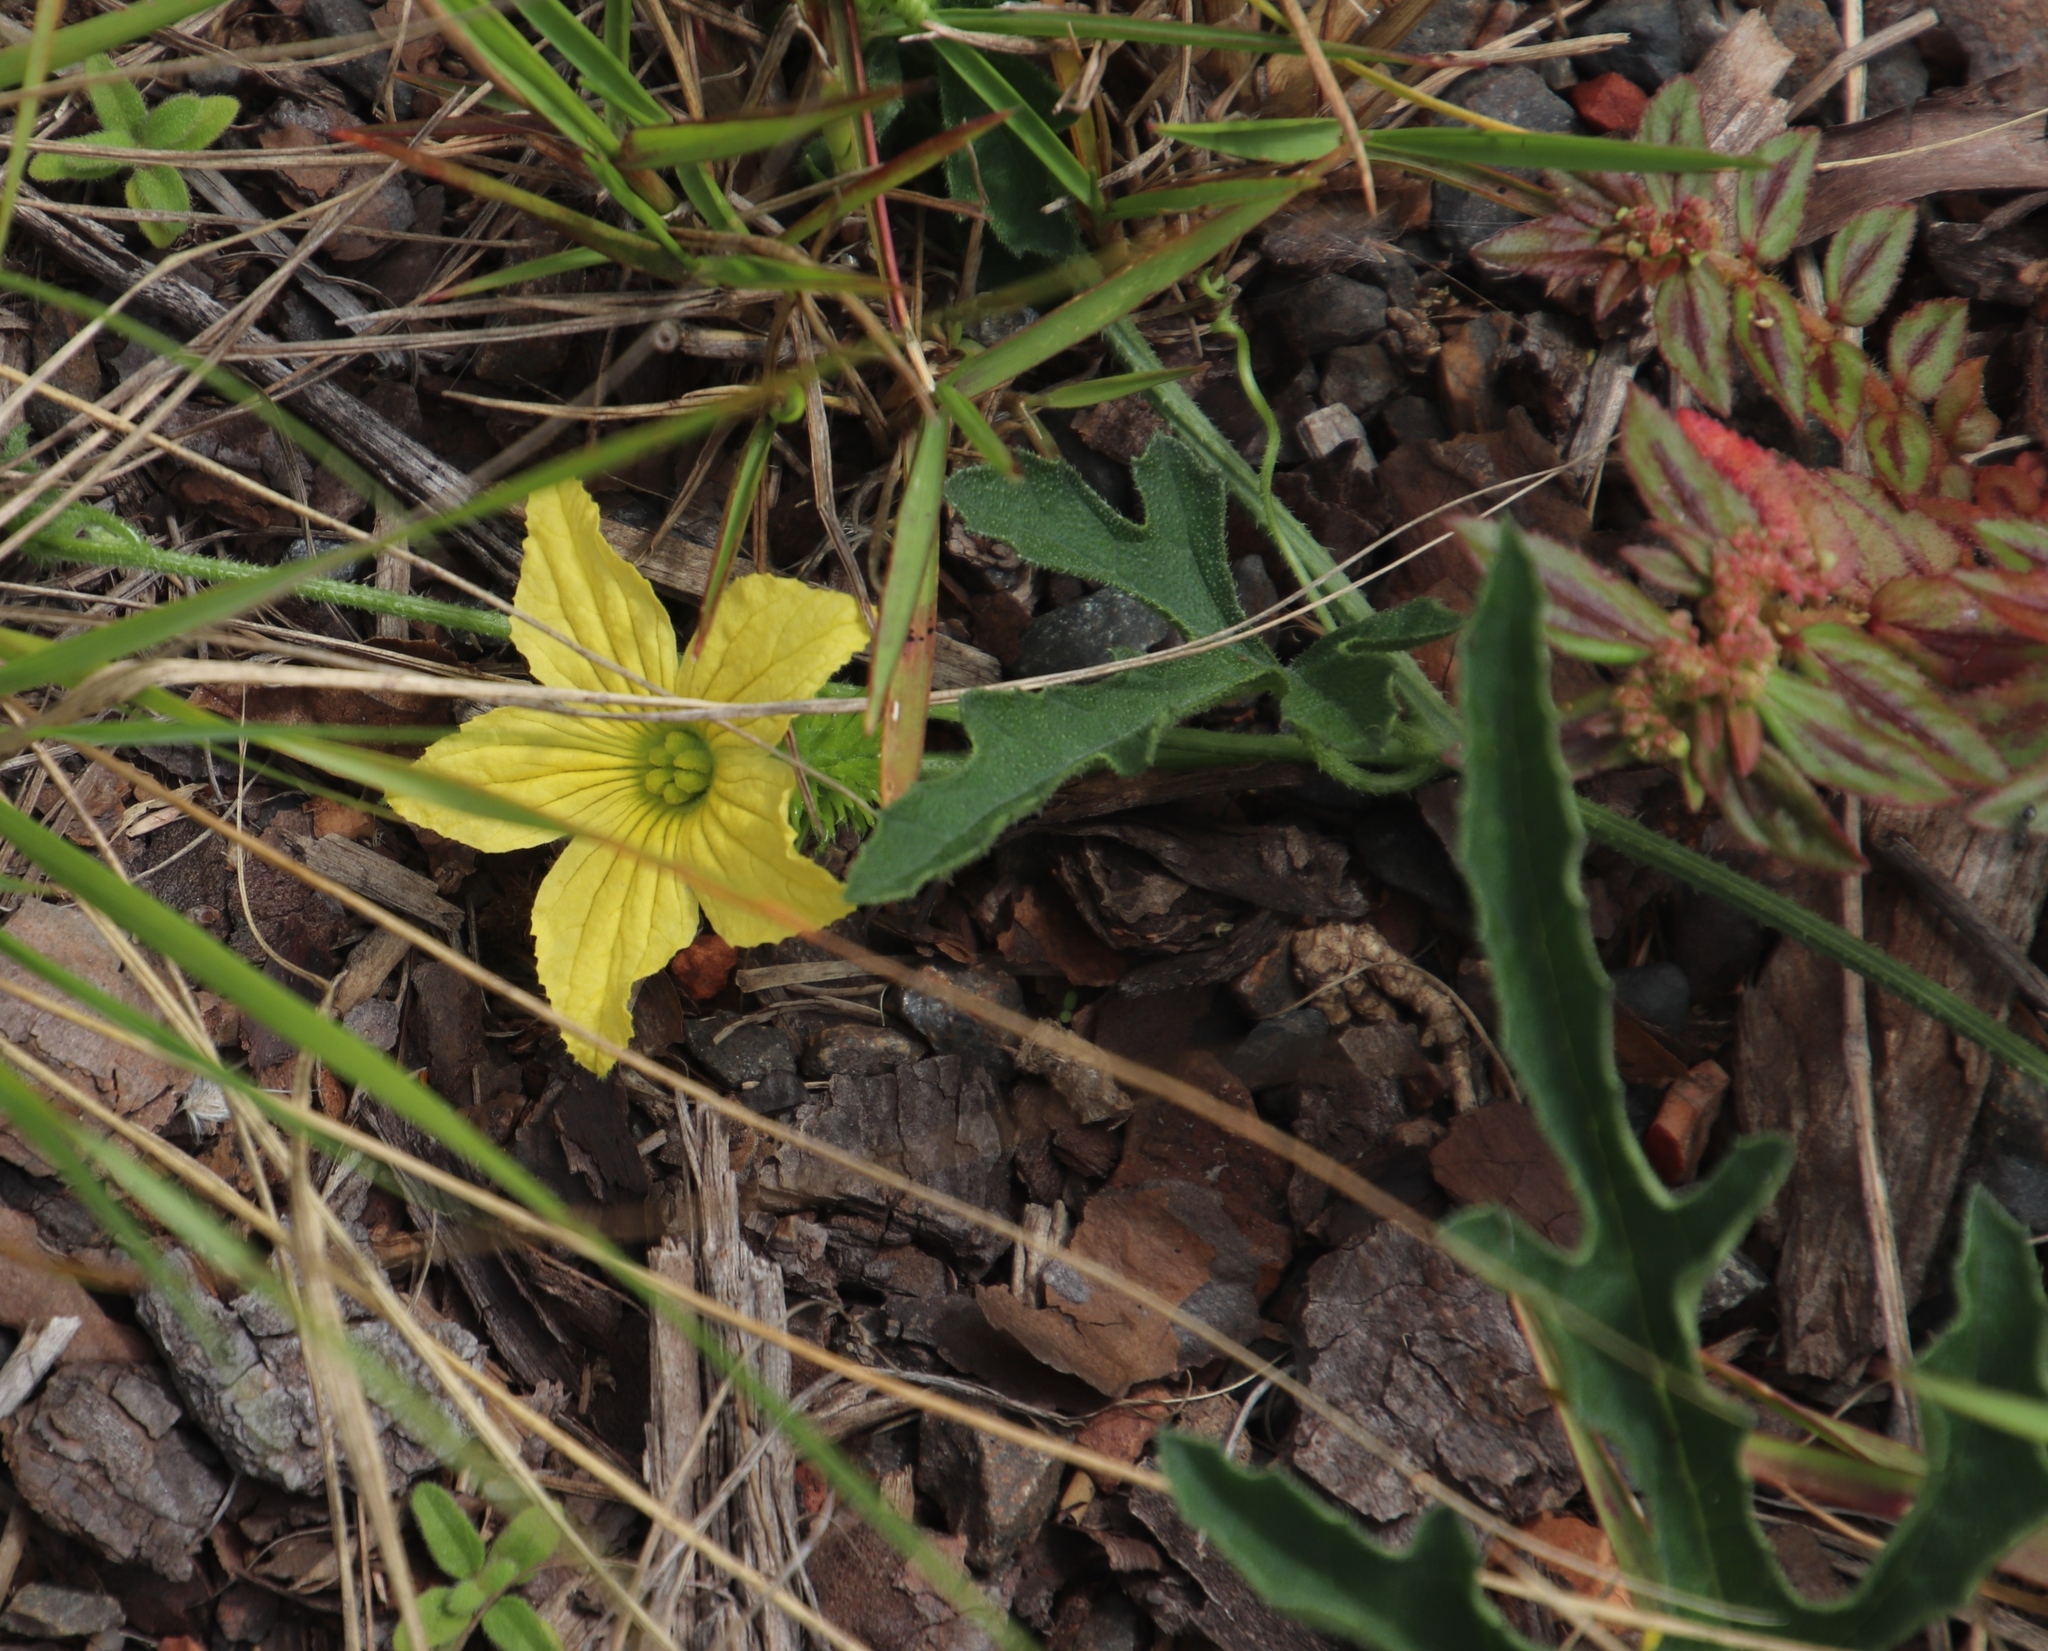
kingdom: Plantae
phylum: Tracheophyta
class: Magnoliopsida
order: Cucurbitales
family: Cucurbitaceae
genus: Cucumis
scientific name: Cucumis anguria
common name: West indian gherkin
